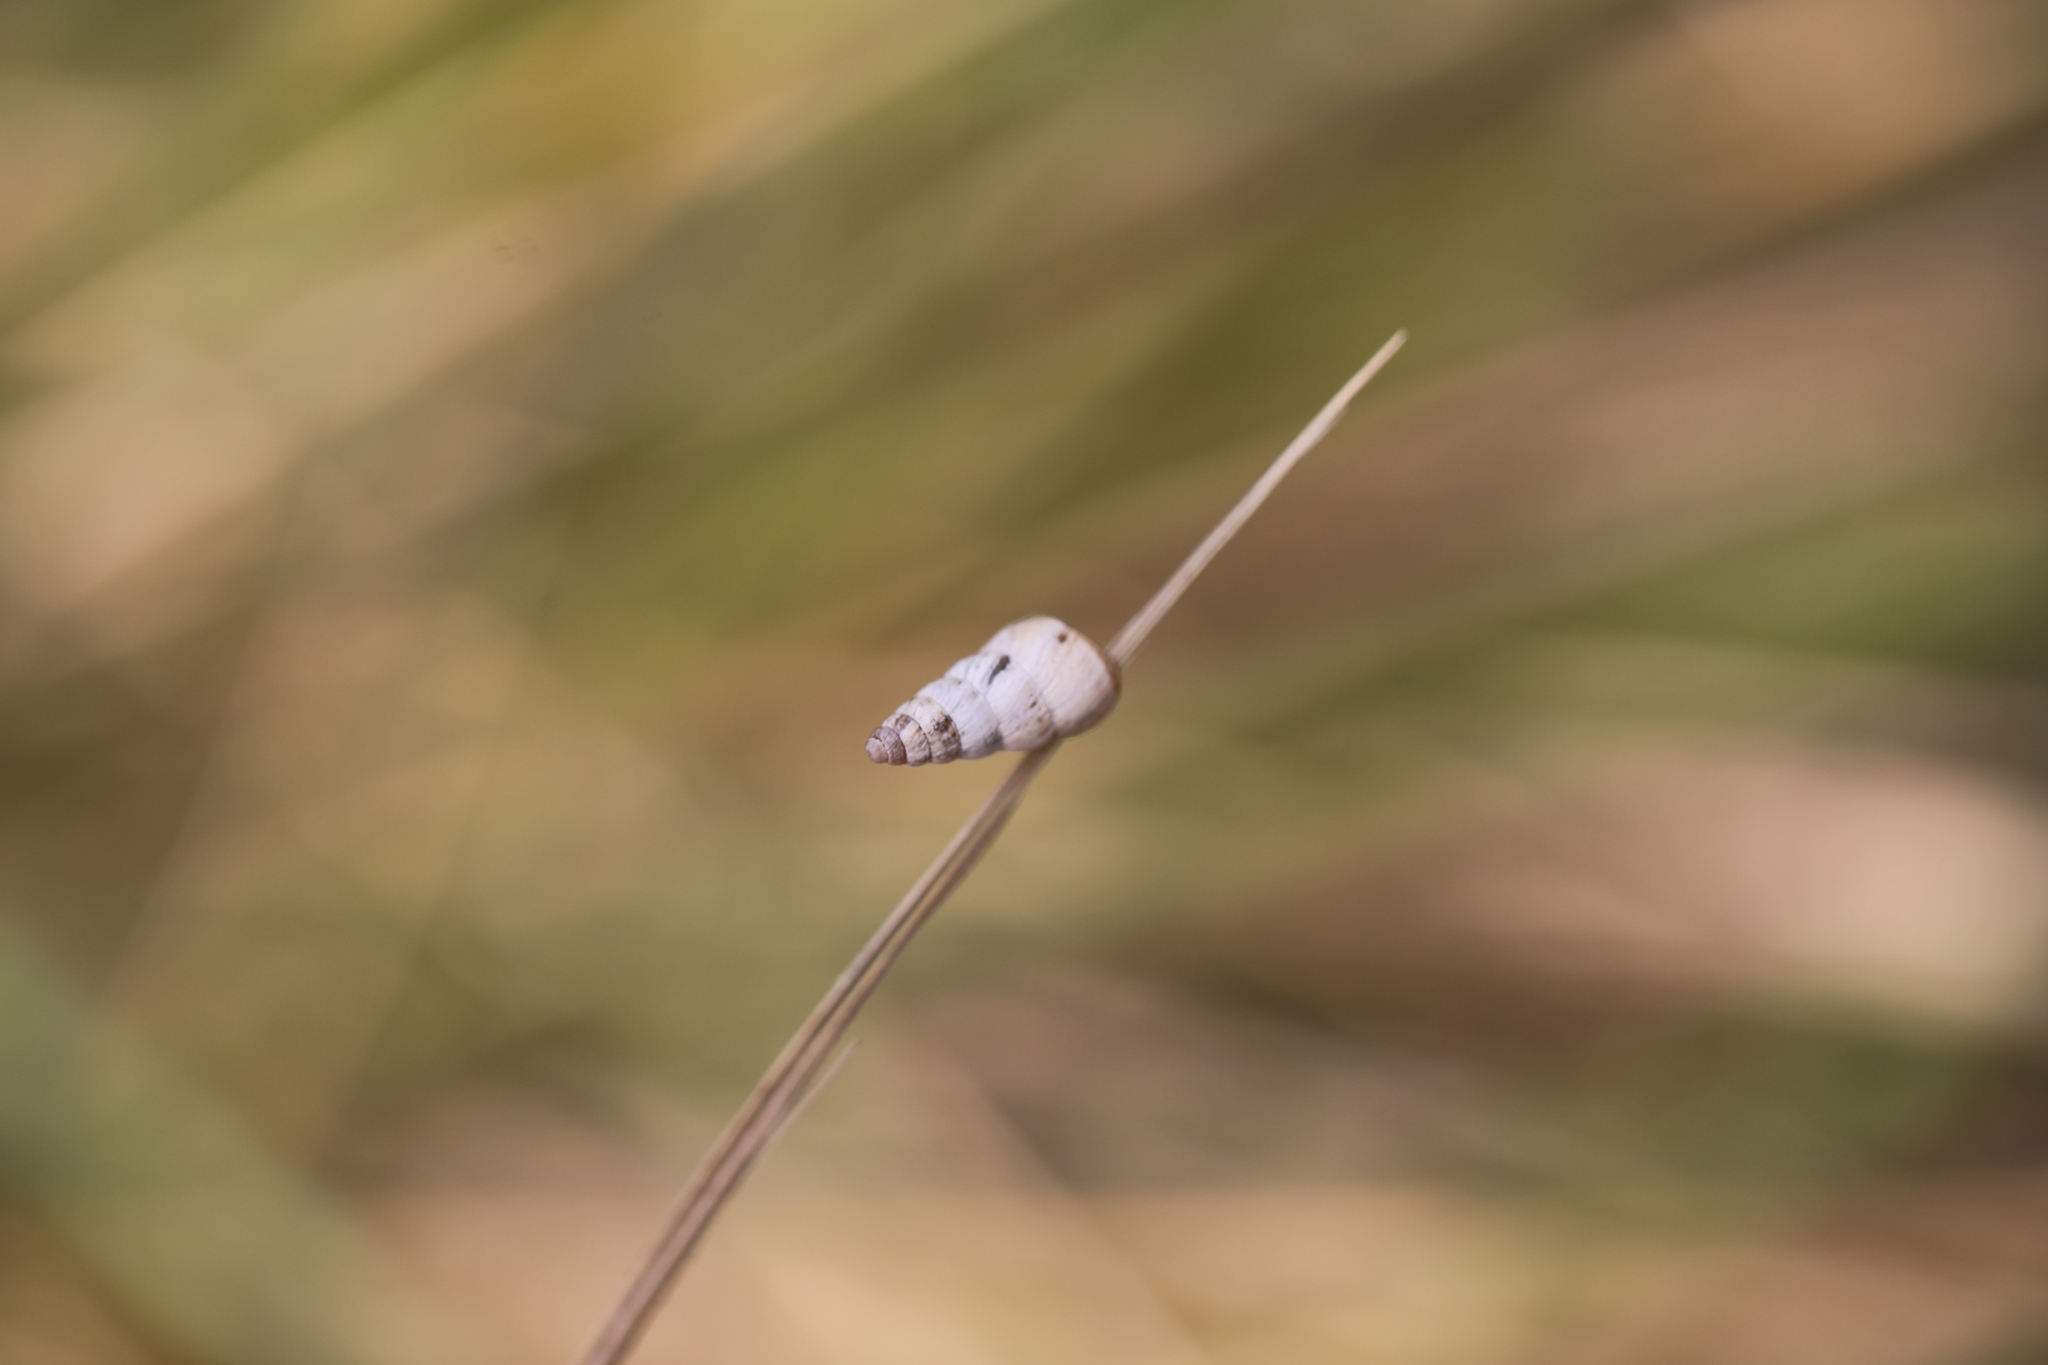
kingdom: Animalia
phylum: Mollusca
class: Gastropoda
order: Stylommatophora
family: Geomitridae
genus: Cochlicella
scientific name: Cochlicella acuta
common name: Pointed snail
